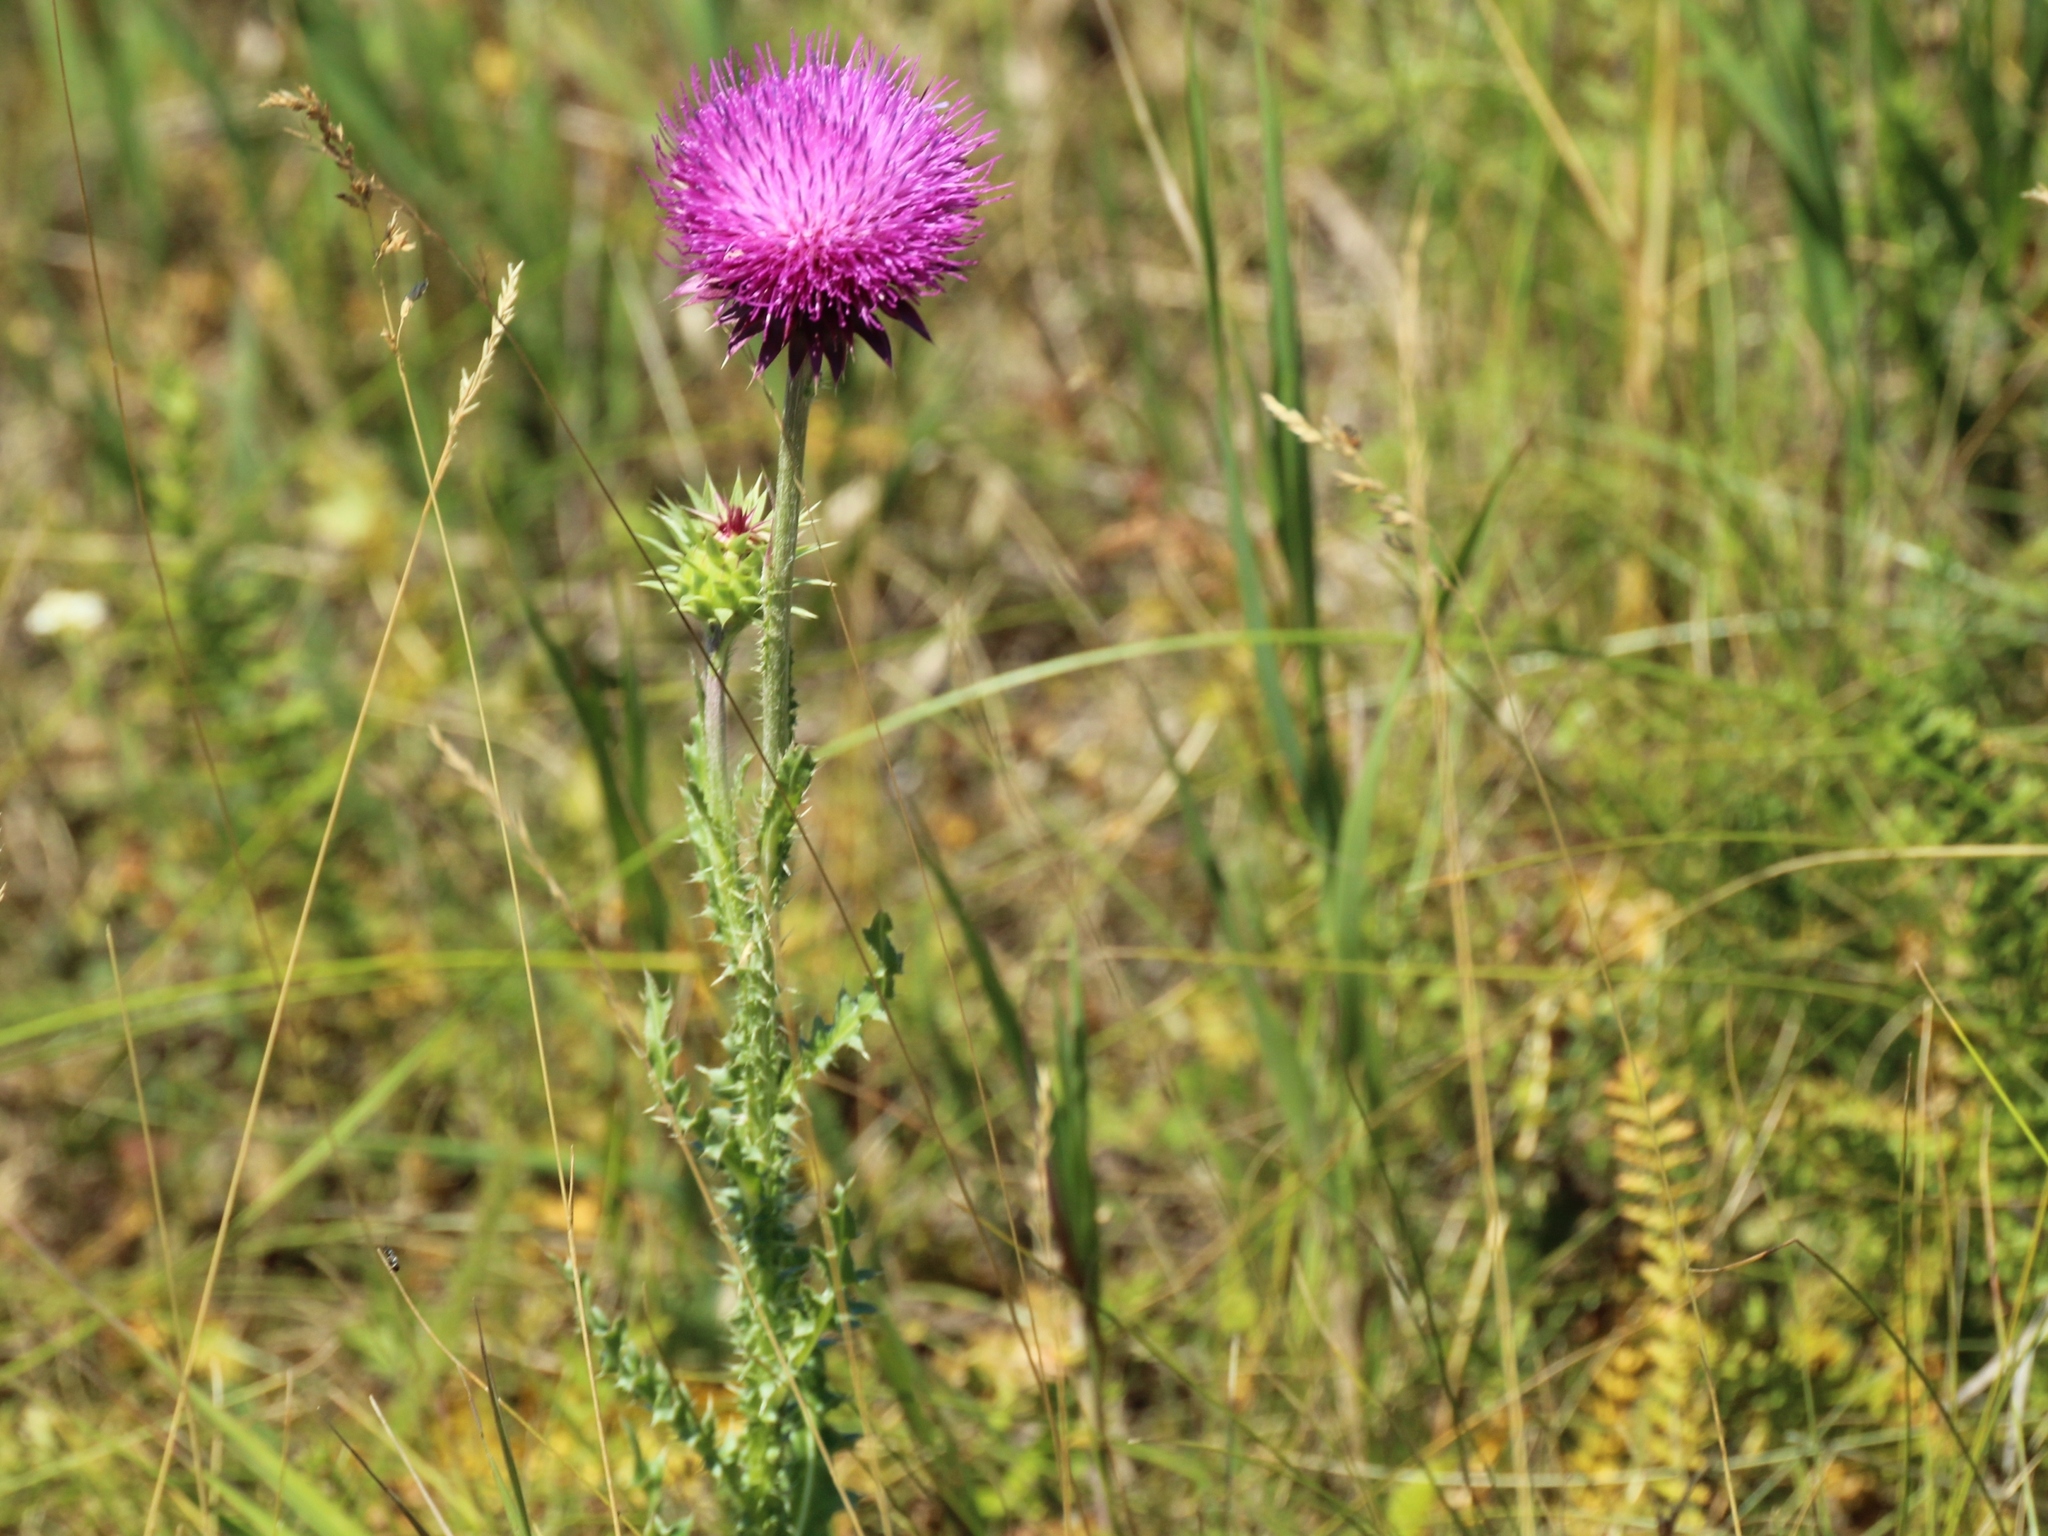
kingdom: Plantae
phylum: Tracheophyta
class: Magnoliopsida
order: Asterales
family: Asteraceae
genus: Carduus
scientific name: Carduus nutans
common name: Musk thistle
